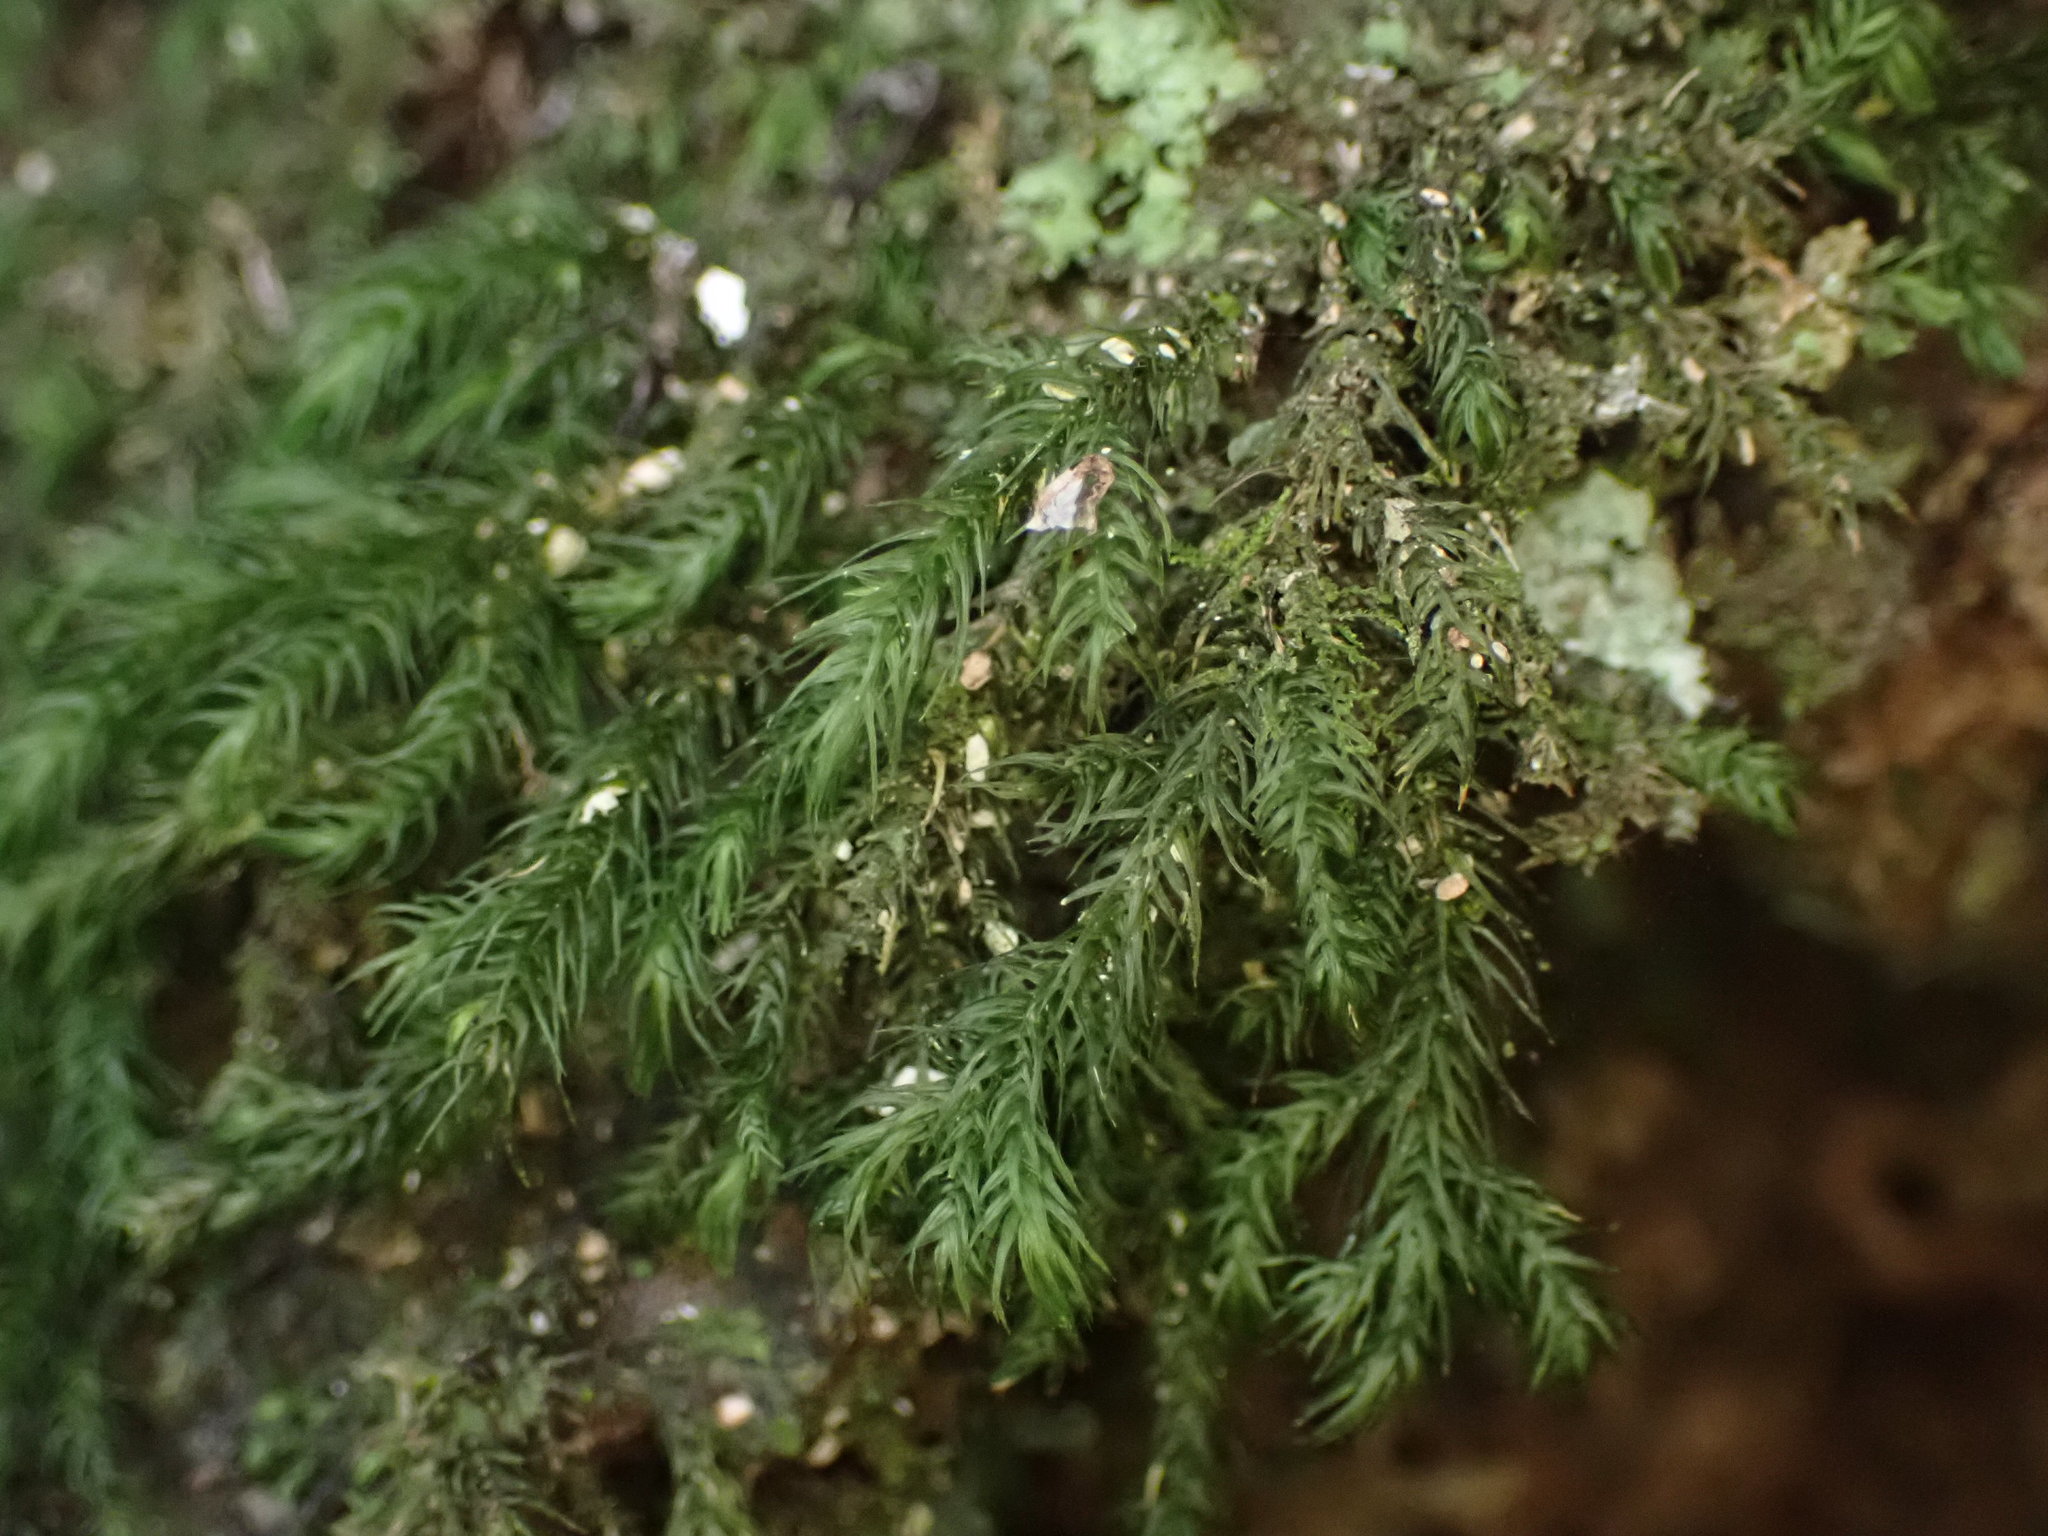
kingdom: Plantae
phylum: Bryophyta
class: Bryopsida
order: Hypnales
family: Neckeraceae
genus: Echinodiopsis
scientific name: Echinodiopsis hispida
